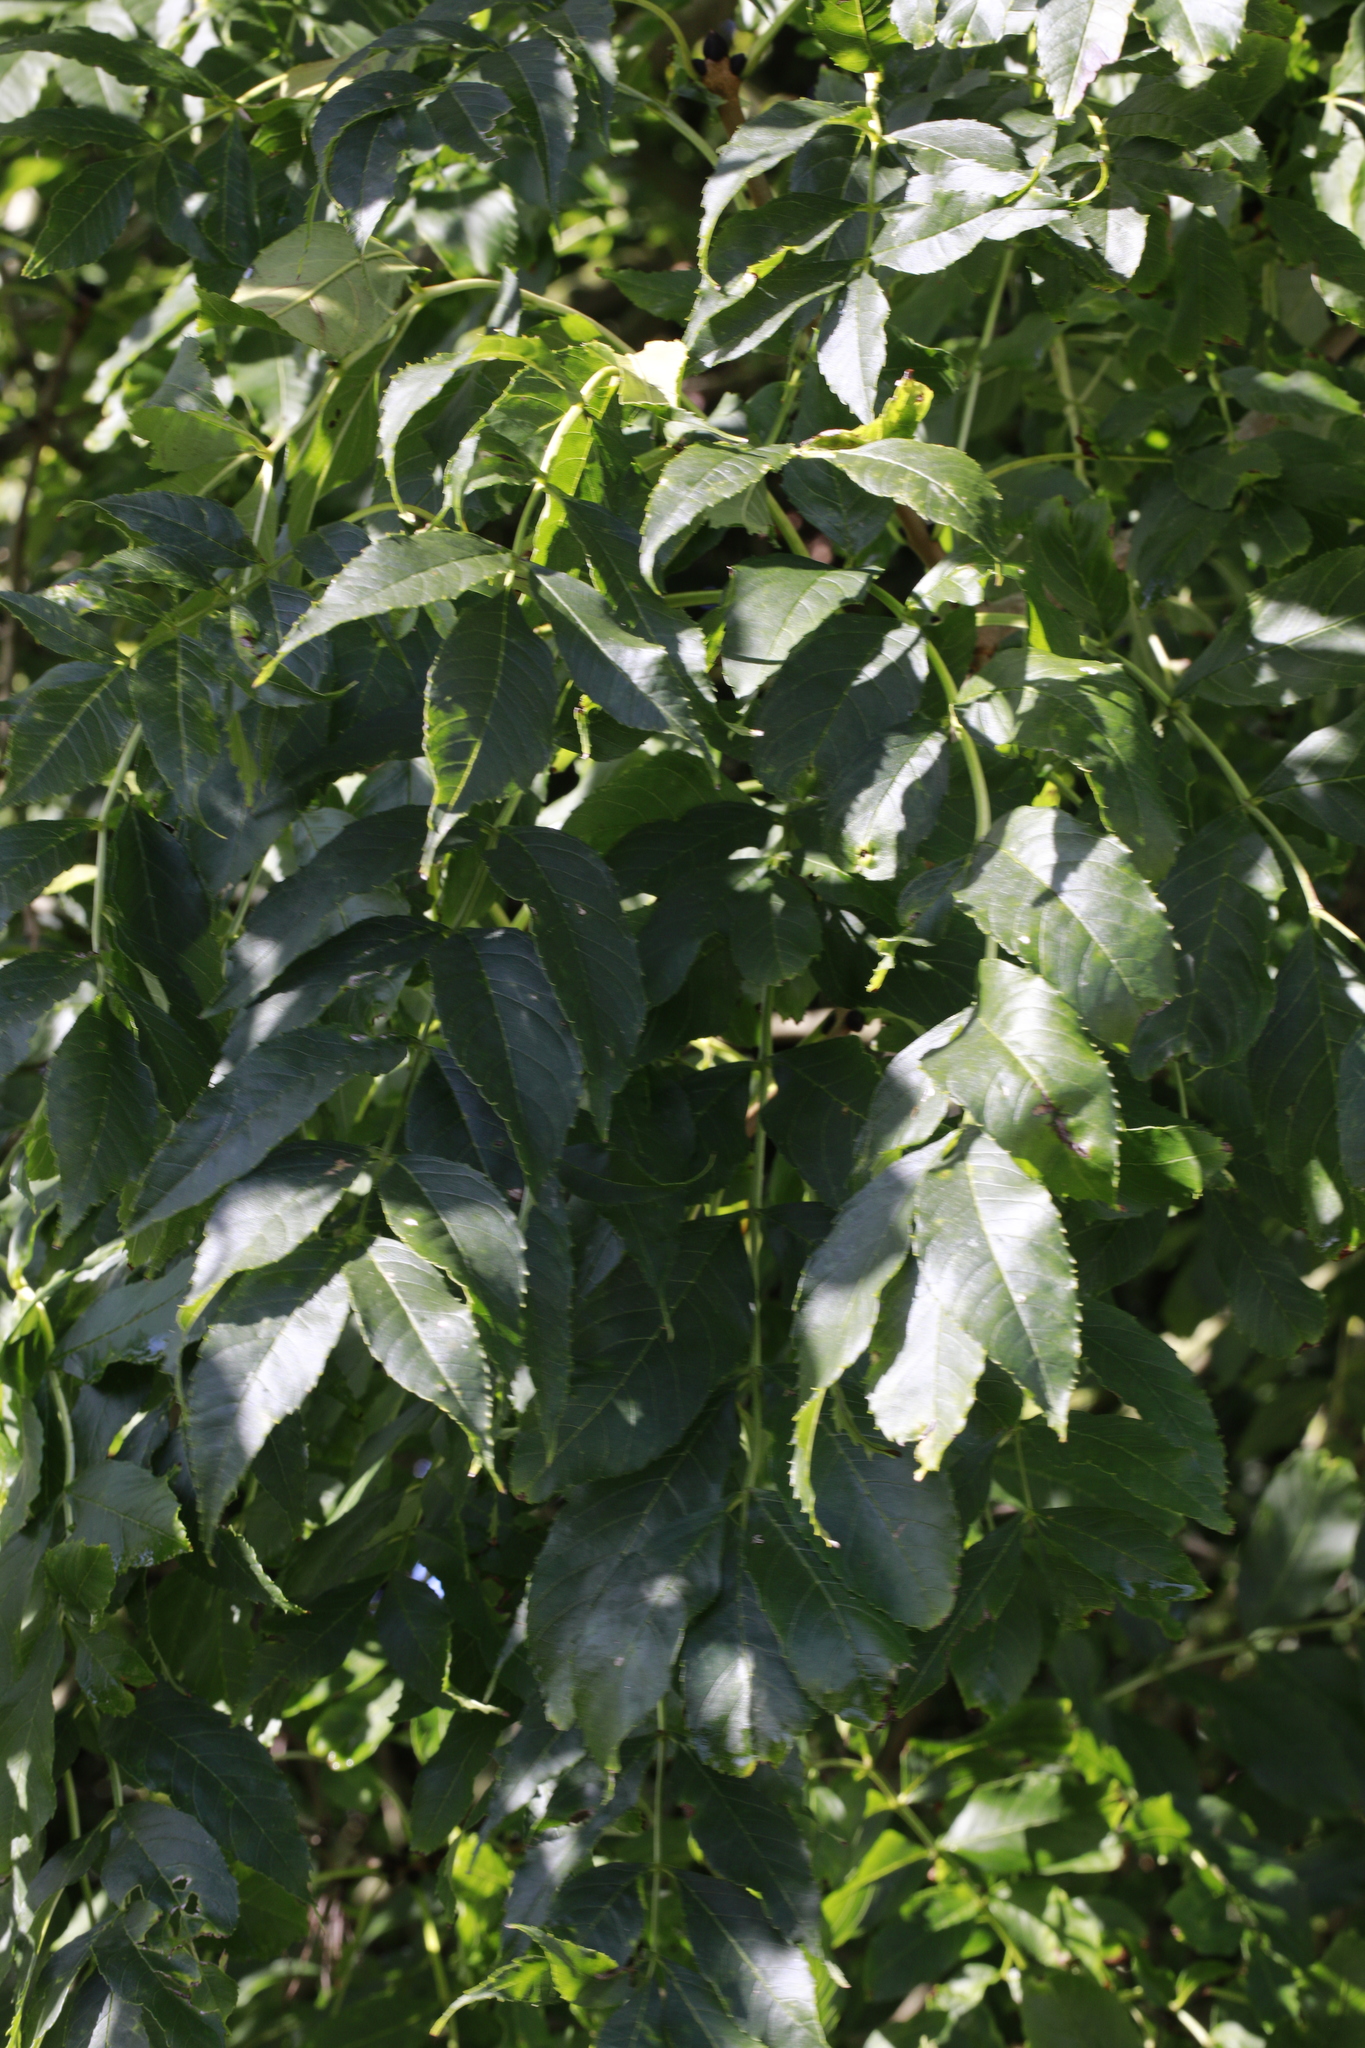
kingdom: Plantae
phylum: Tracheophyta
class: Magnoliopsida
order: Lamiales
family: Oleaceae
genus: Fraxinus
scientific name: Fraxinus excelsior
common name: European ash
